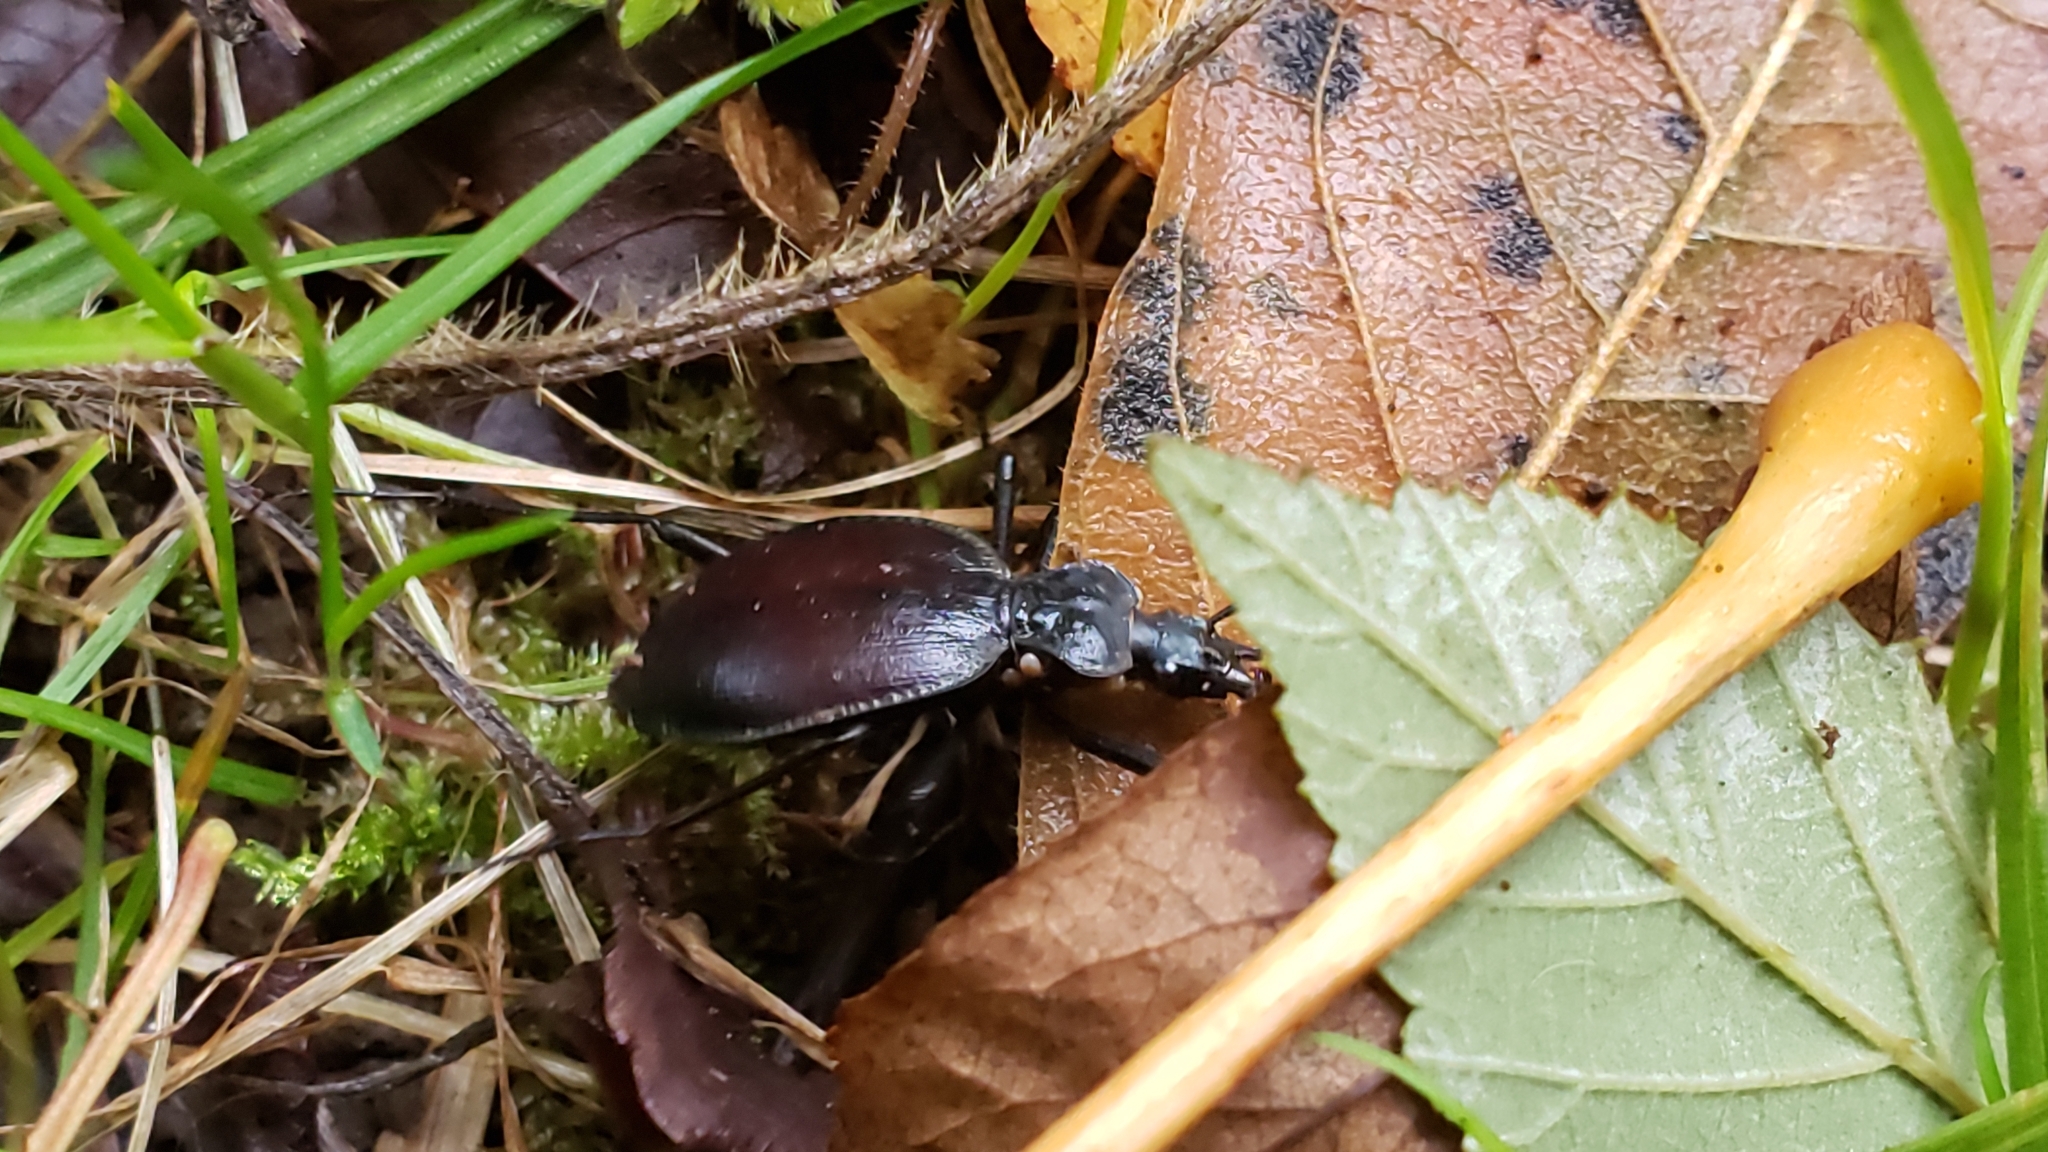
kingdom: Animalia
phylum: Arthropoda
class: Insecta
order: Coleoptera
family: Carabidae
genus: Scaphinotus
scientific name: Scaphinotus angusticollis
